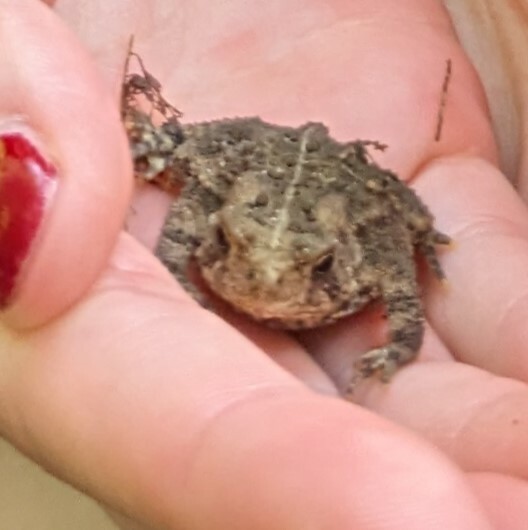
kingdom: Animalia
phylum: Chordata
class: Amphibia
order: Anura
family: Bufonidae
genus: Anaxyrus
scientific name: Anaxyrus americanus
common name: American toad
